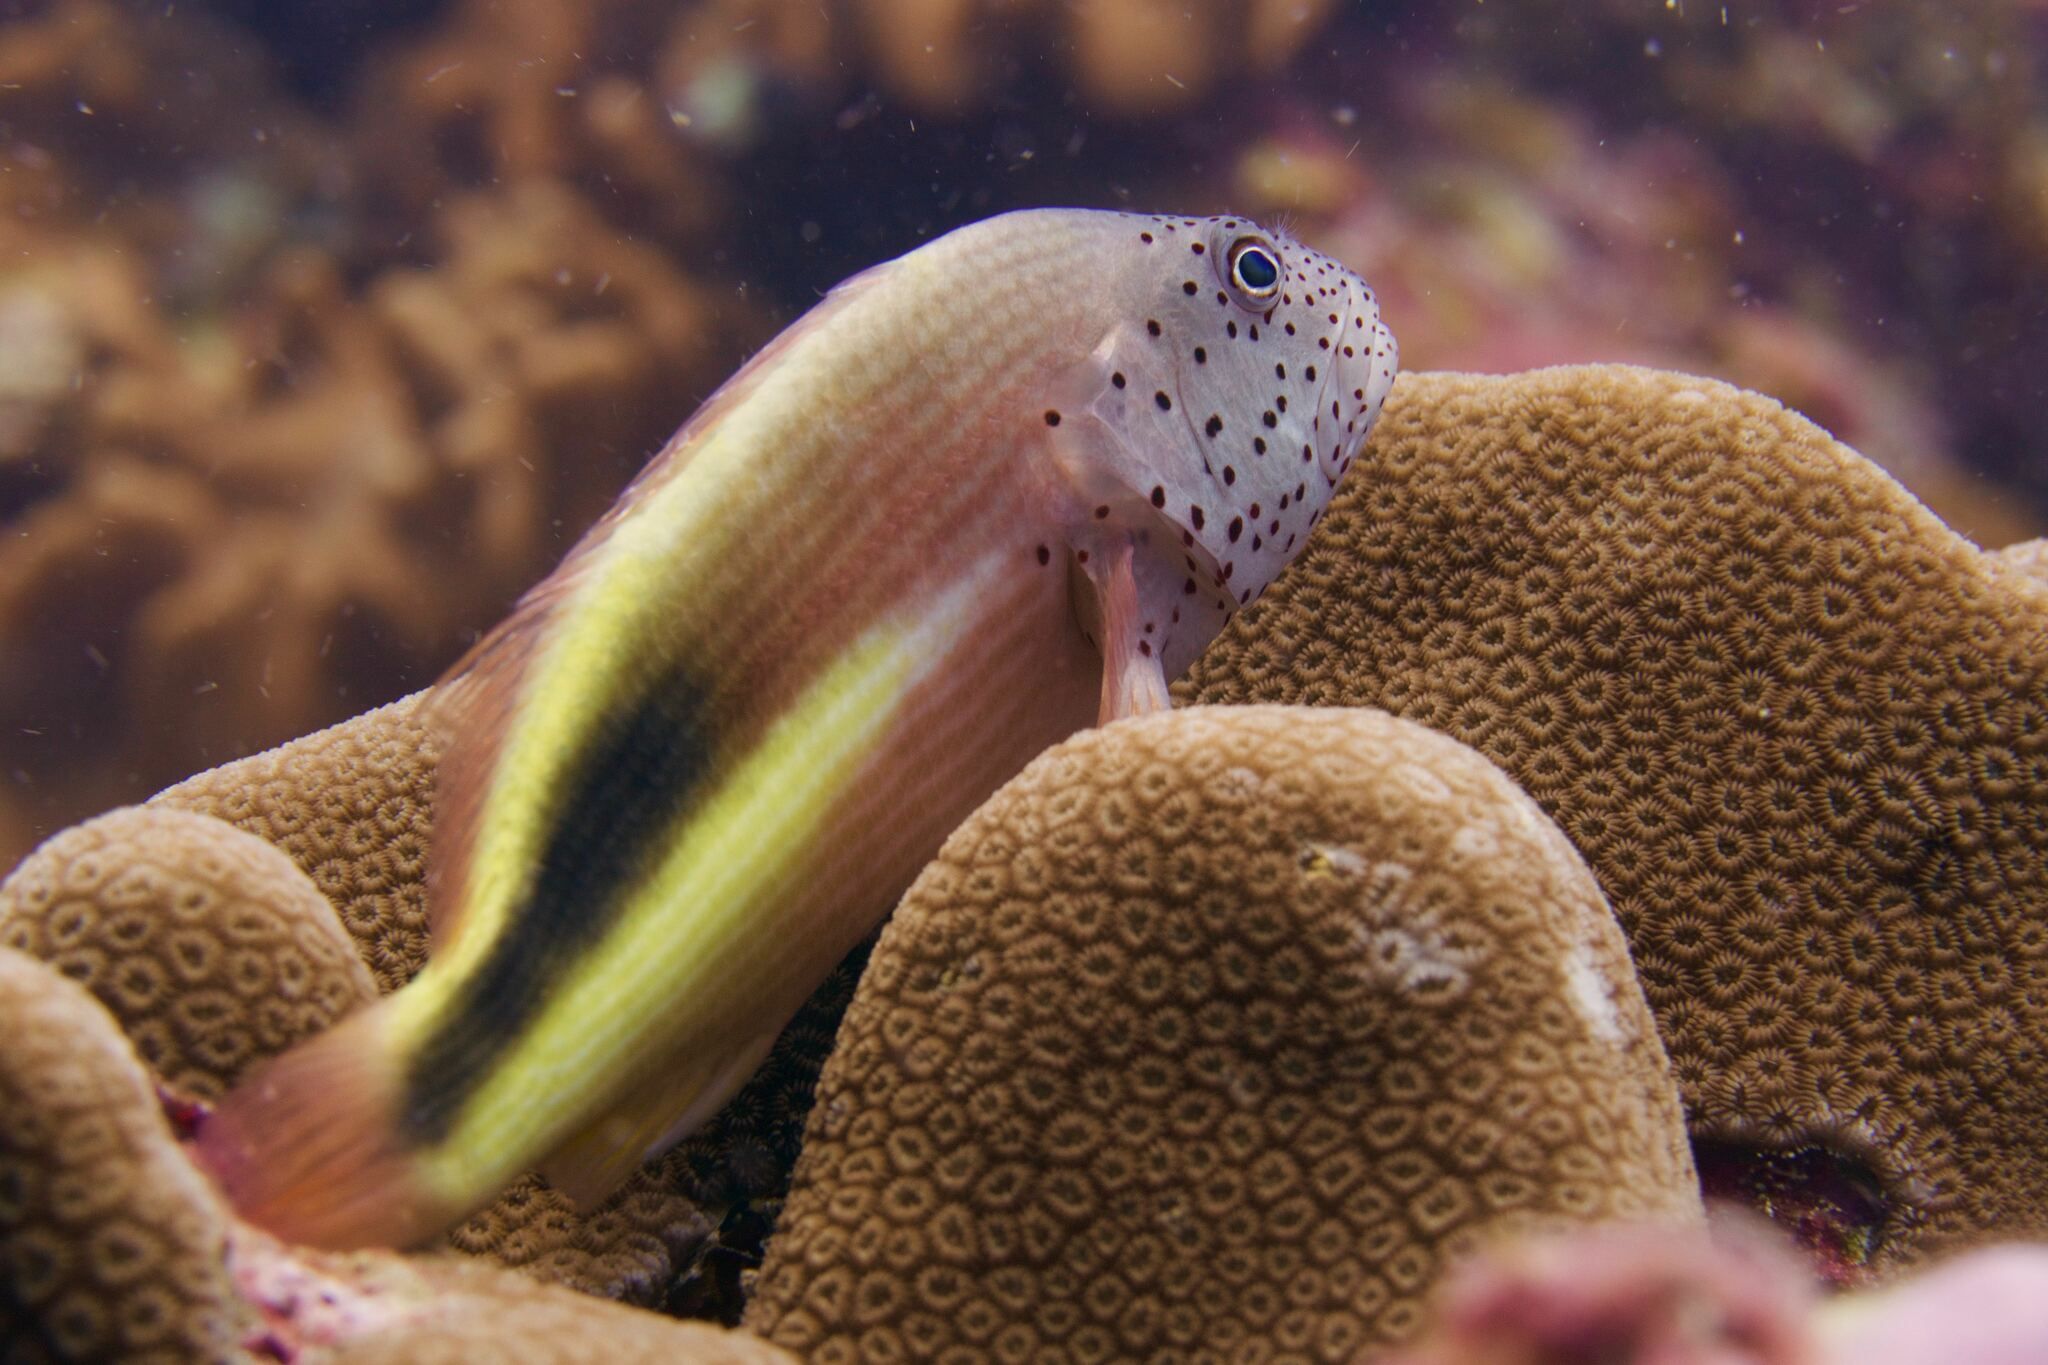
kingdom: Animalia
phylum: Chordata
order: Perciformes
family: Cirrhitidae
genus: Paracirrhites
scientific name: Paracirrhites forsteri
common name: Freckled hawkfish
